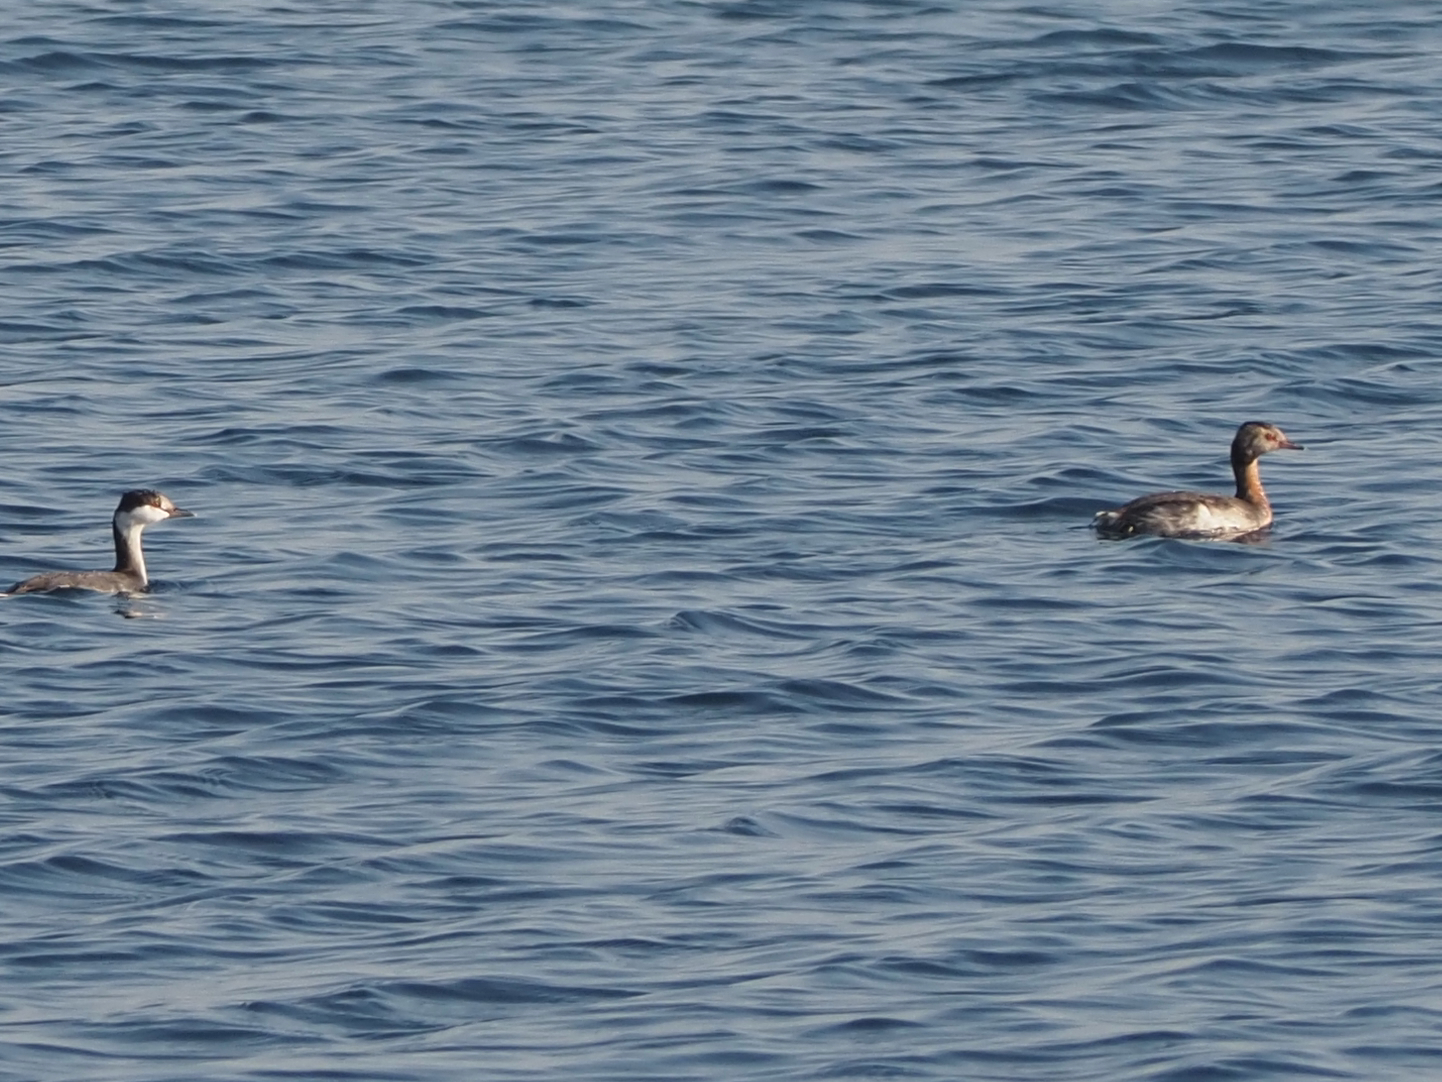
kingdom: Animalia
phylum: Chordata
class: Aves
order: Podicipediformes
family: Podicipedidae
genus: Podiceps
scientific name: Podiceps auritus
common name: Horned grebe
